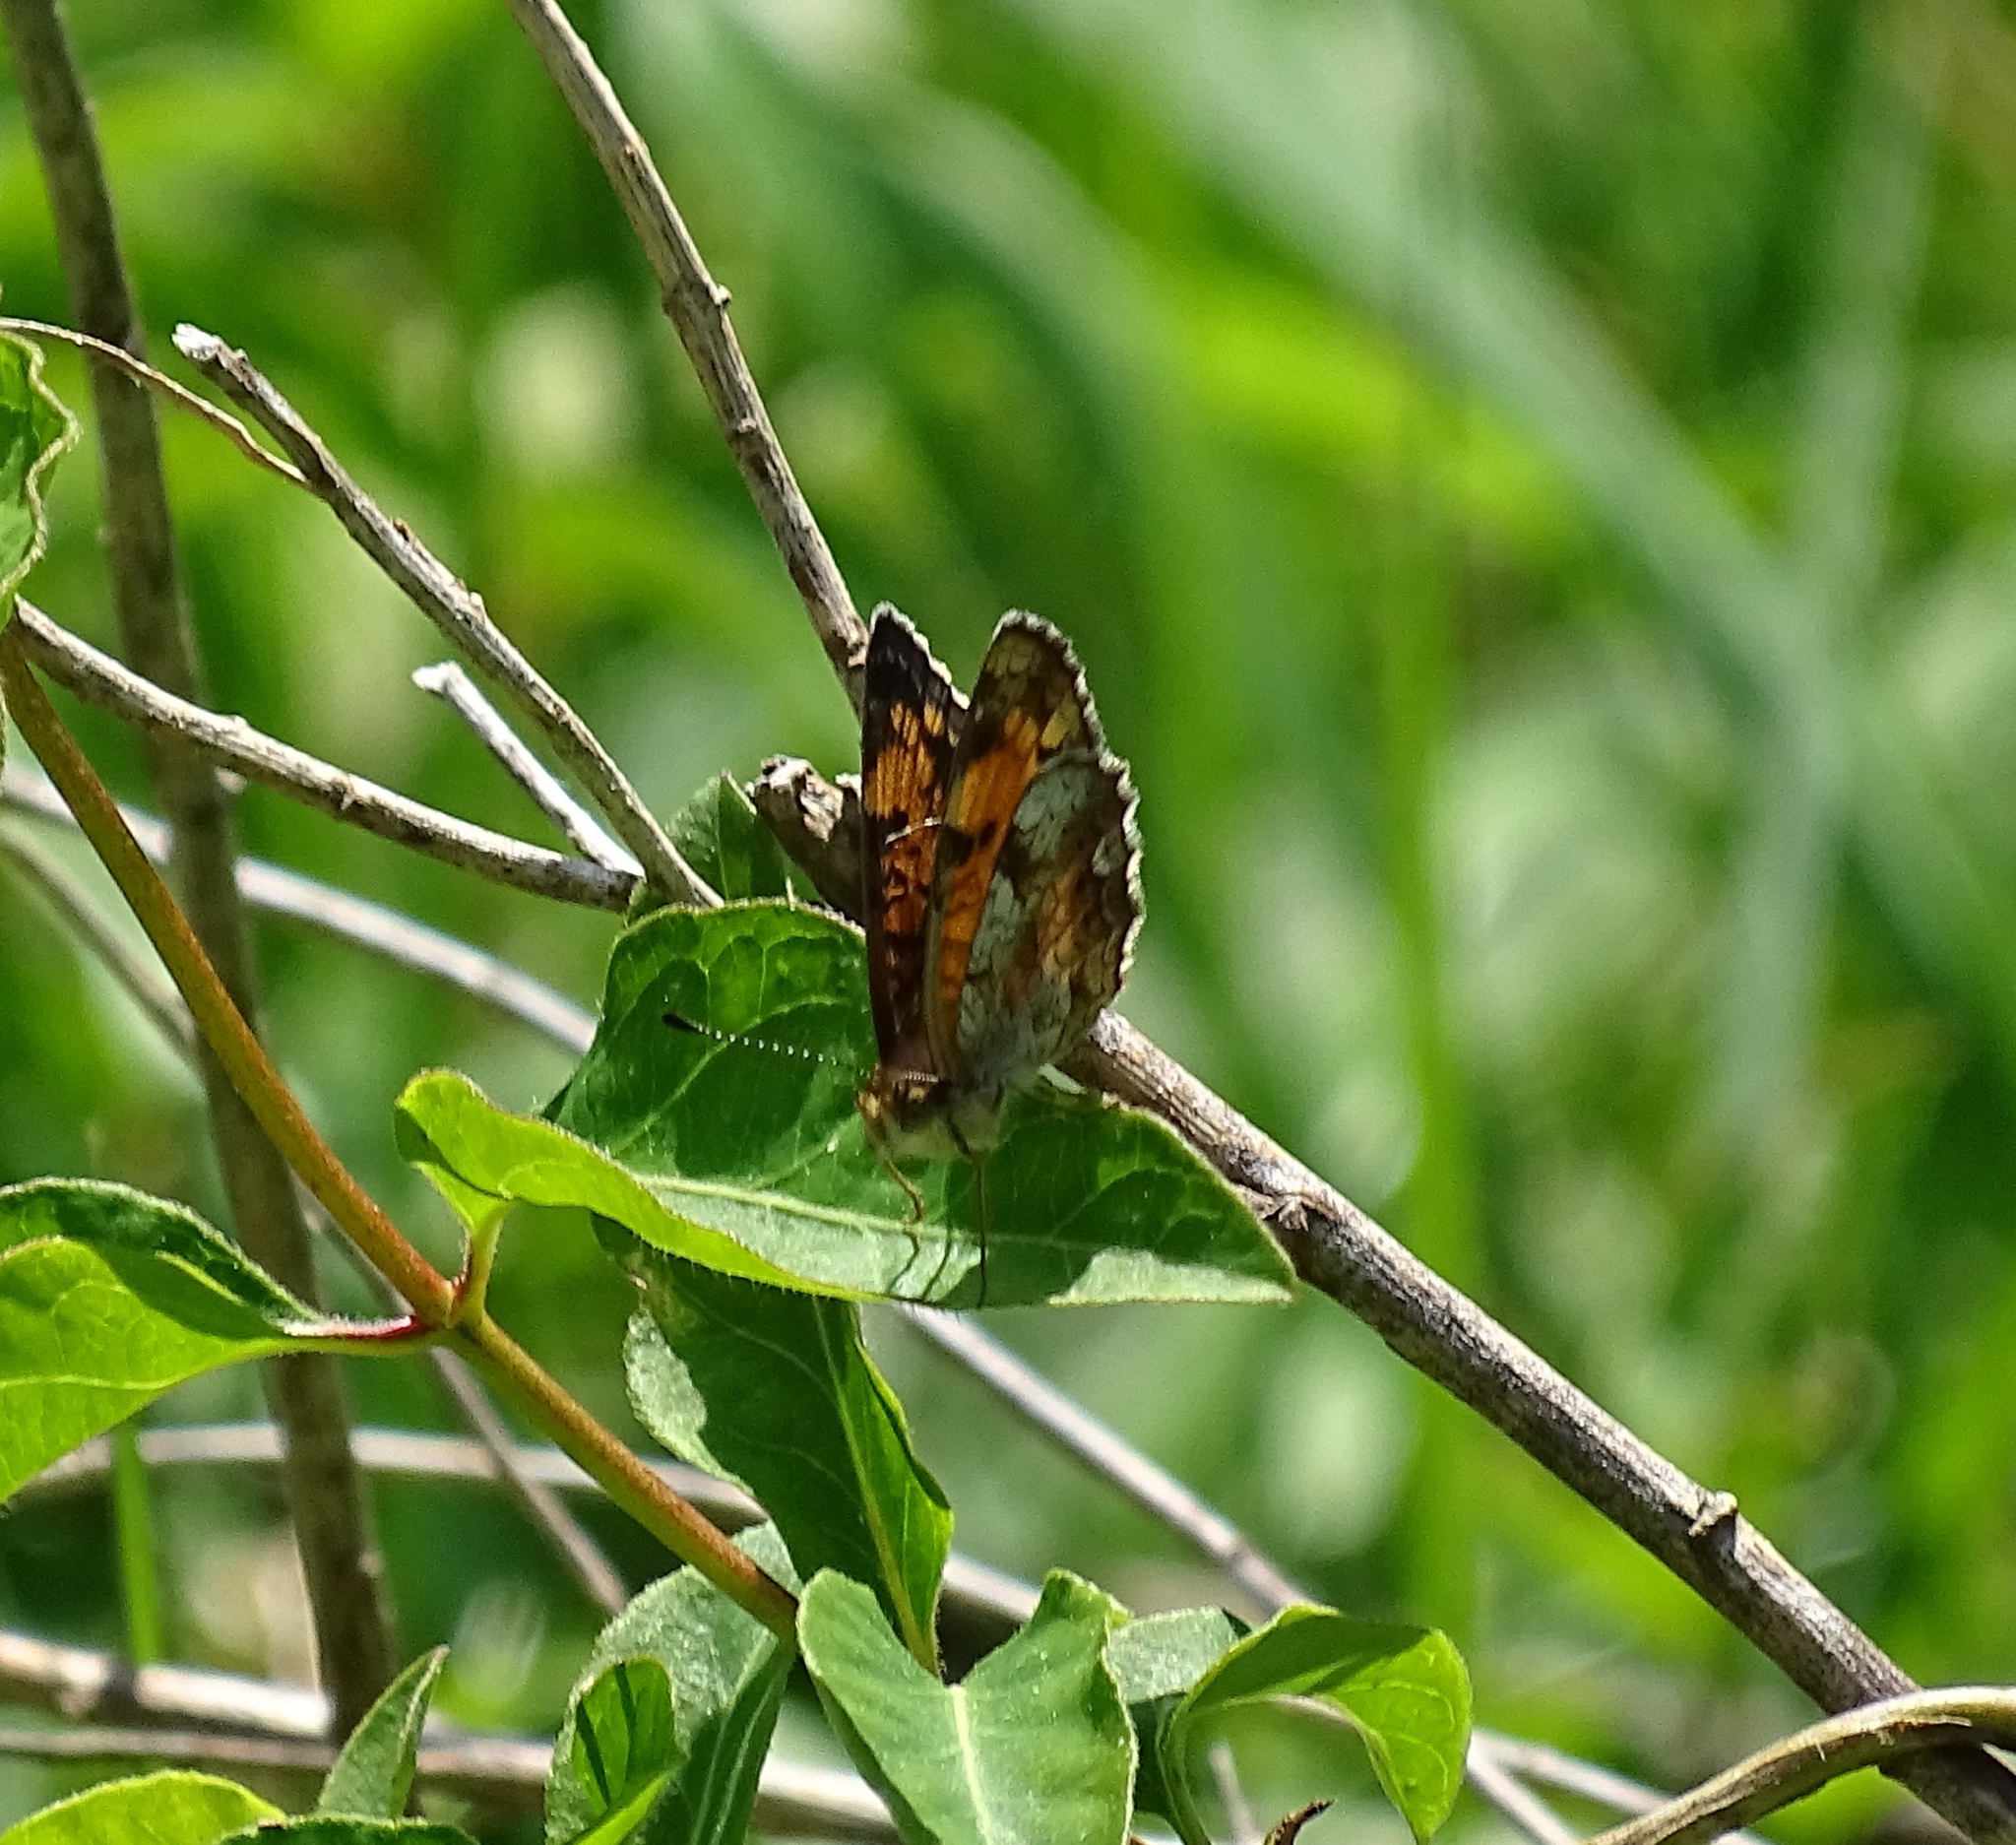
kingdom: Animalia
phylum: Arthropoda
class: Insecta
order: Lepidoptera
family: Nymphalidae
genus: Phyciodes
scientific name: Phyciodes tharos
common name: Pearl crescent
